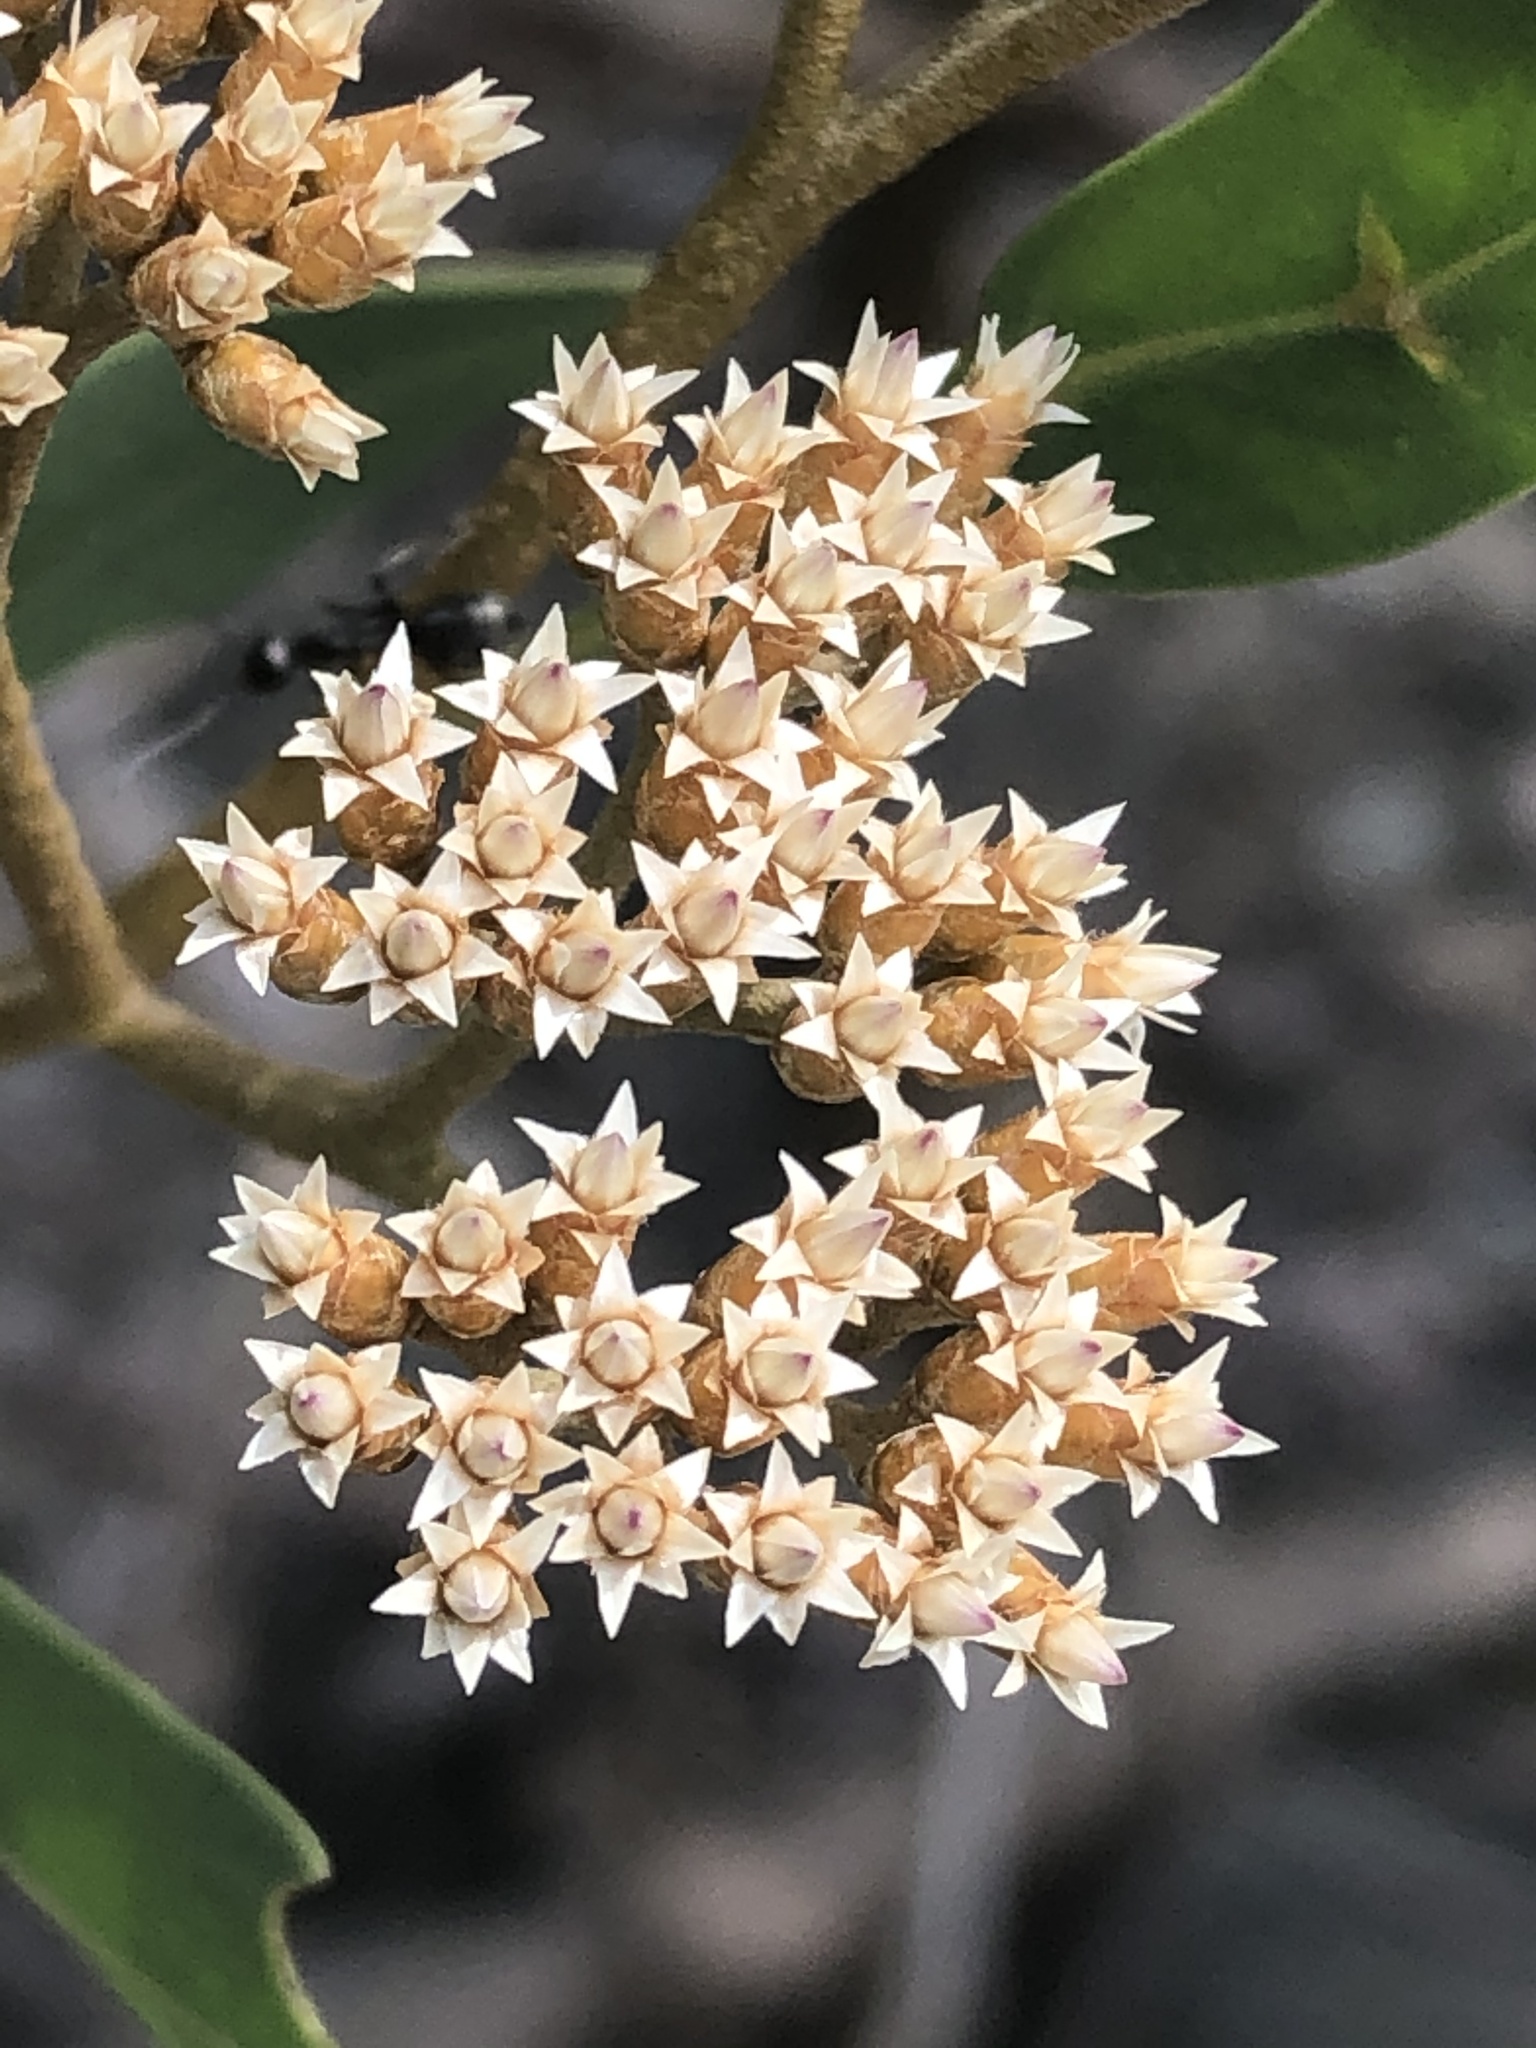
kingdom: Plantae
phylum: Tracheophyta
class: Magnoliopsida
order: Asterales
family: Asteraceae
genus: Tessaria
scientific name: Tessaria integrifolia
